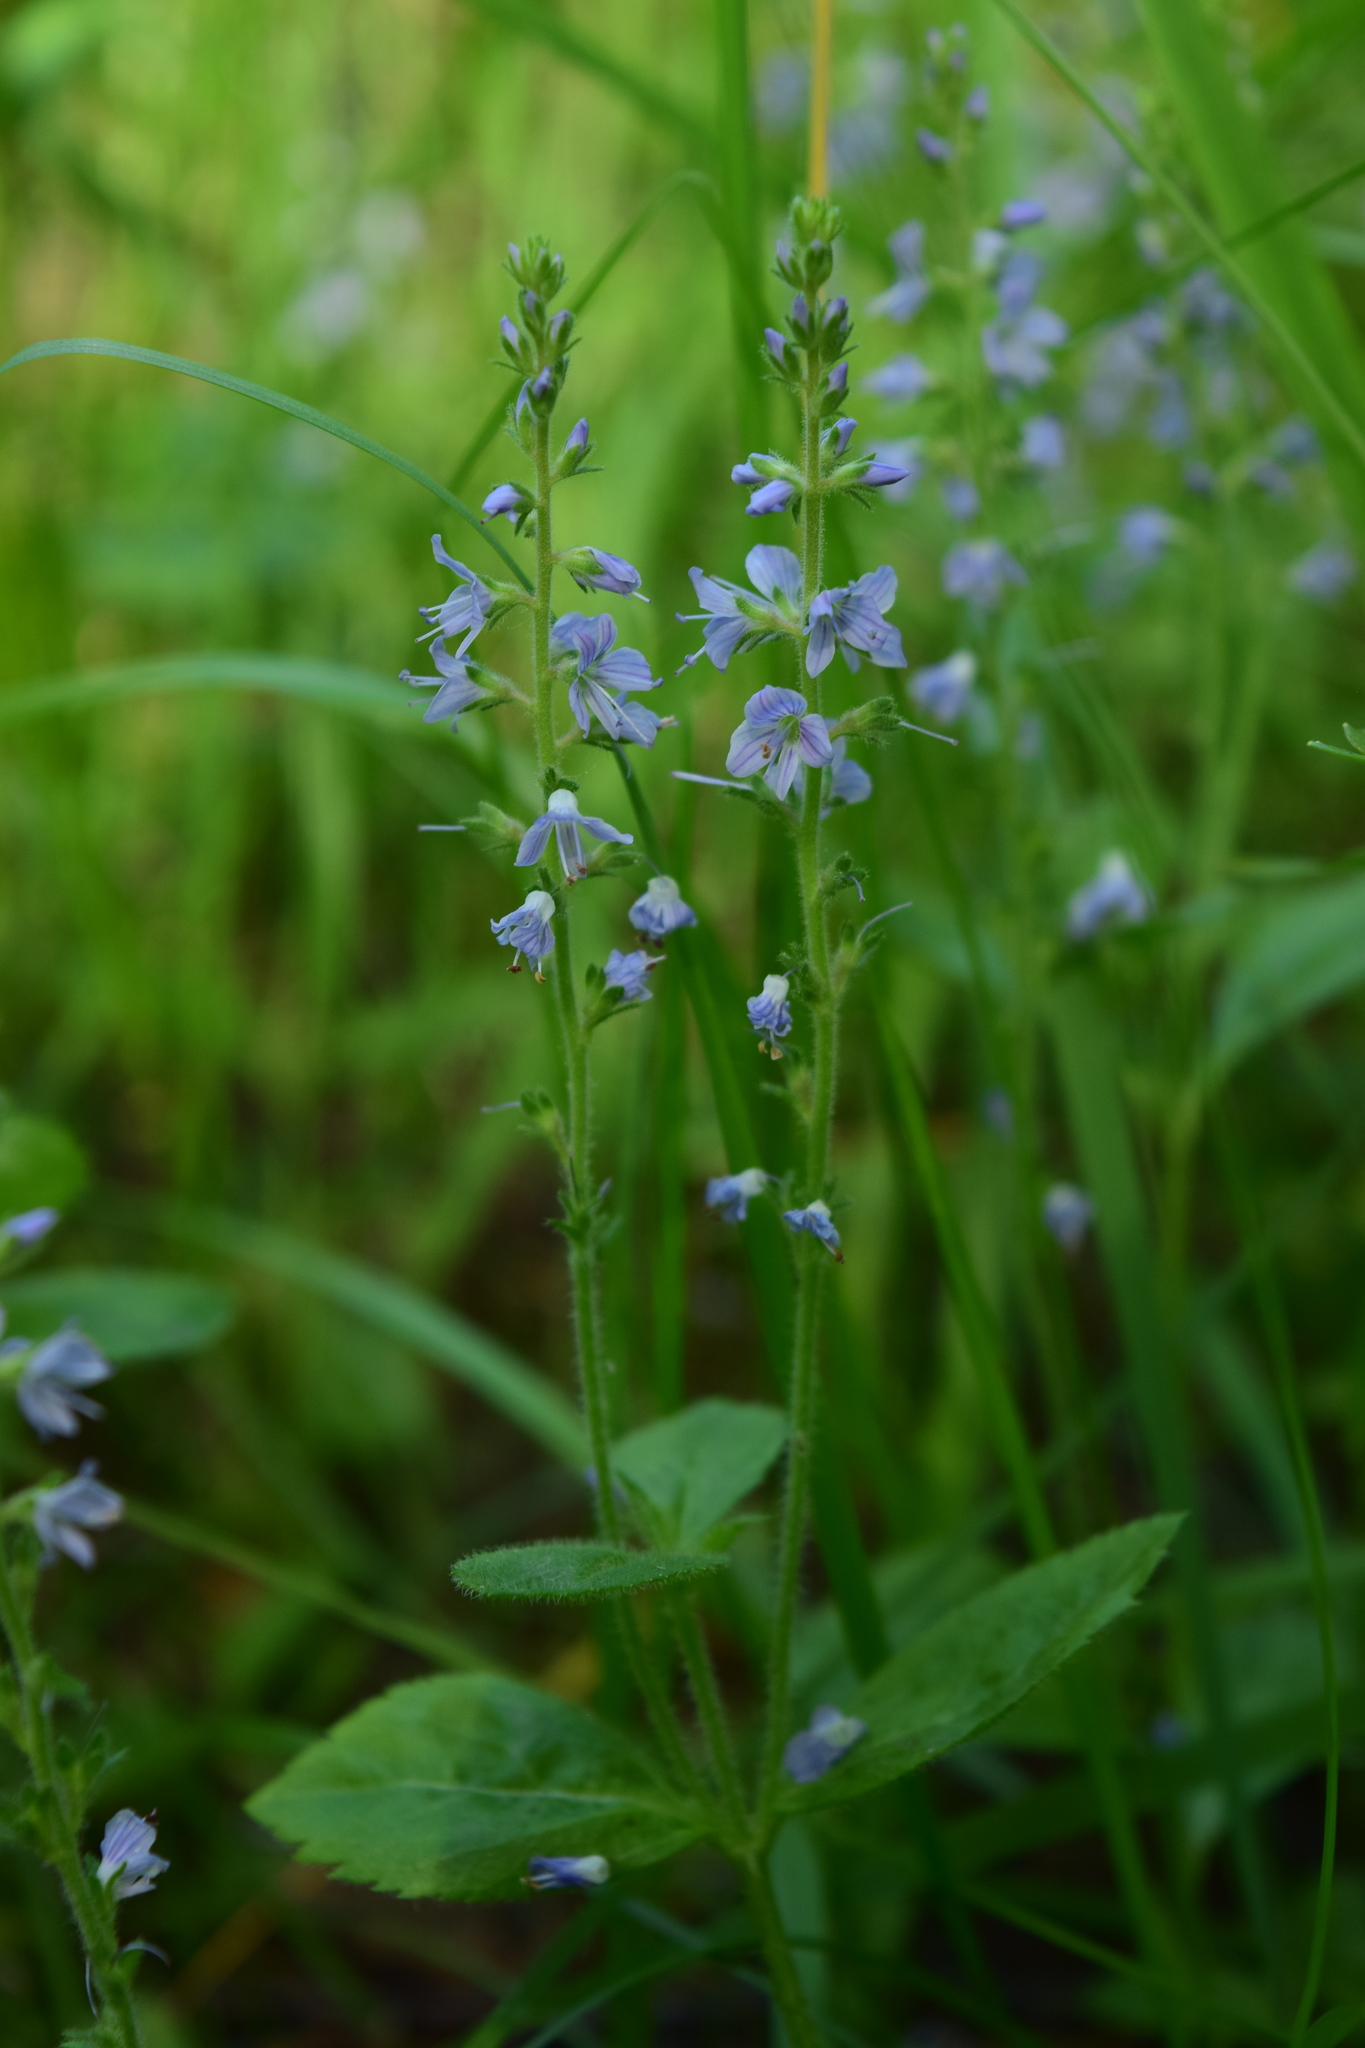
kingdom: Plantae
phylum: Tracheophyta
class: Magnoliopsida
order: Lamiales
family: Plantaginaceae
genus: Veronica
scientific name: Veronica officinalis
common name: Common speedwell
